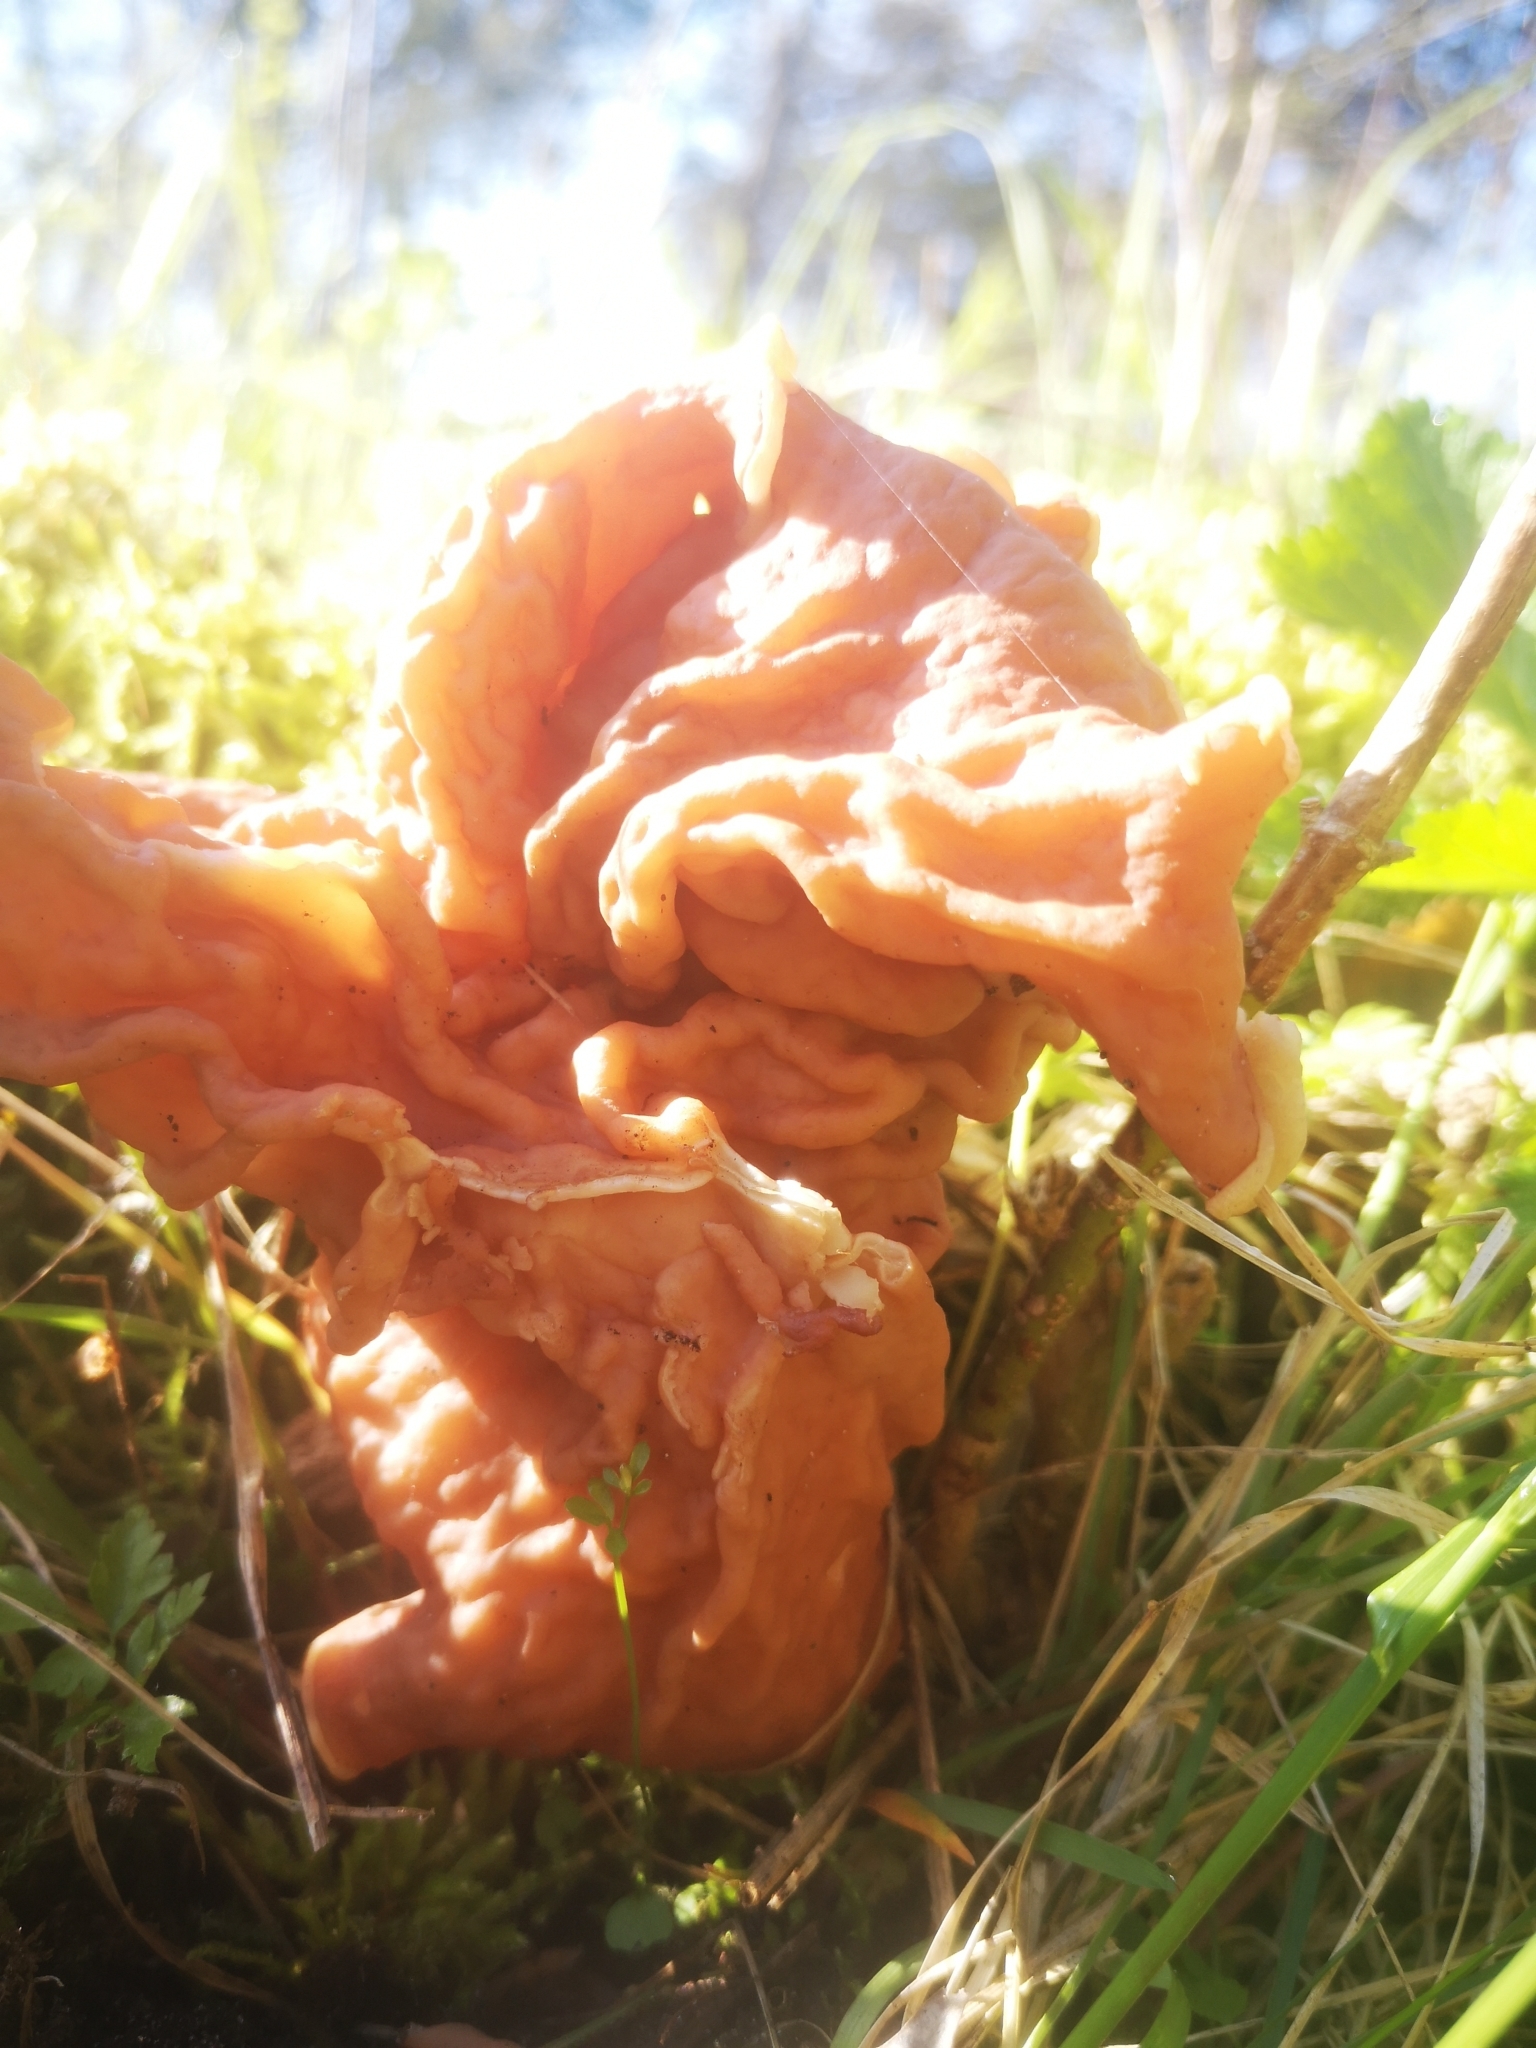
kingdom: Fungi
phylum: Ascomycota
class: Pezizomycetes
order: Pezizales
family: Discinaceae
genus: Discina
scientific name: Discina brunnea
